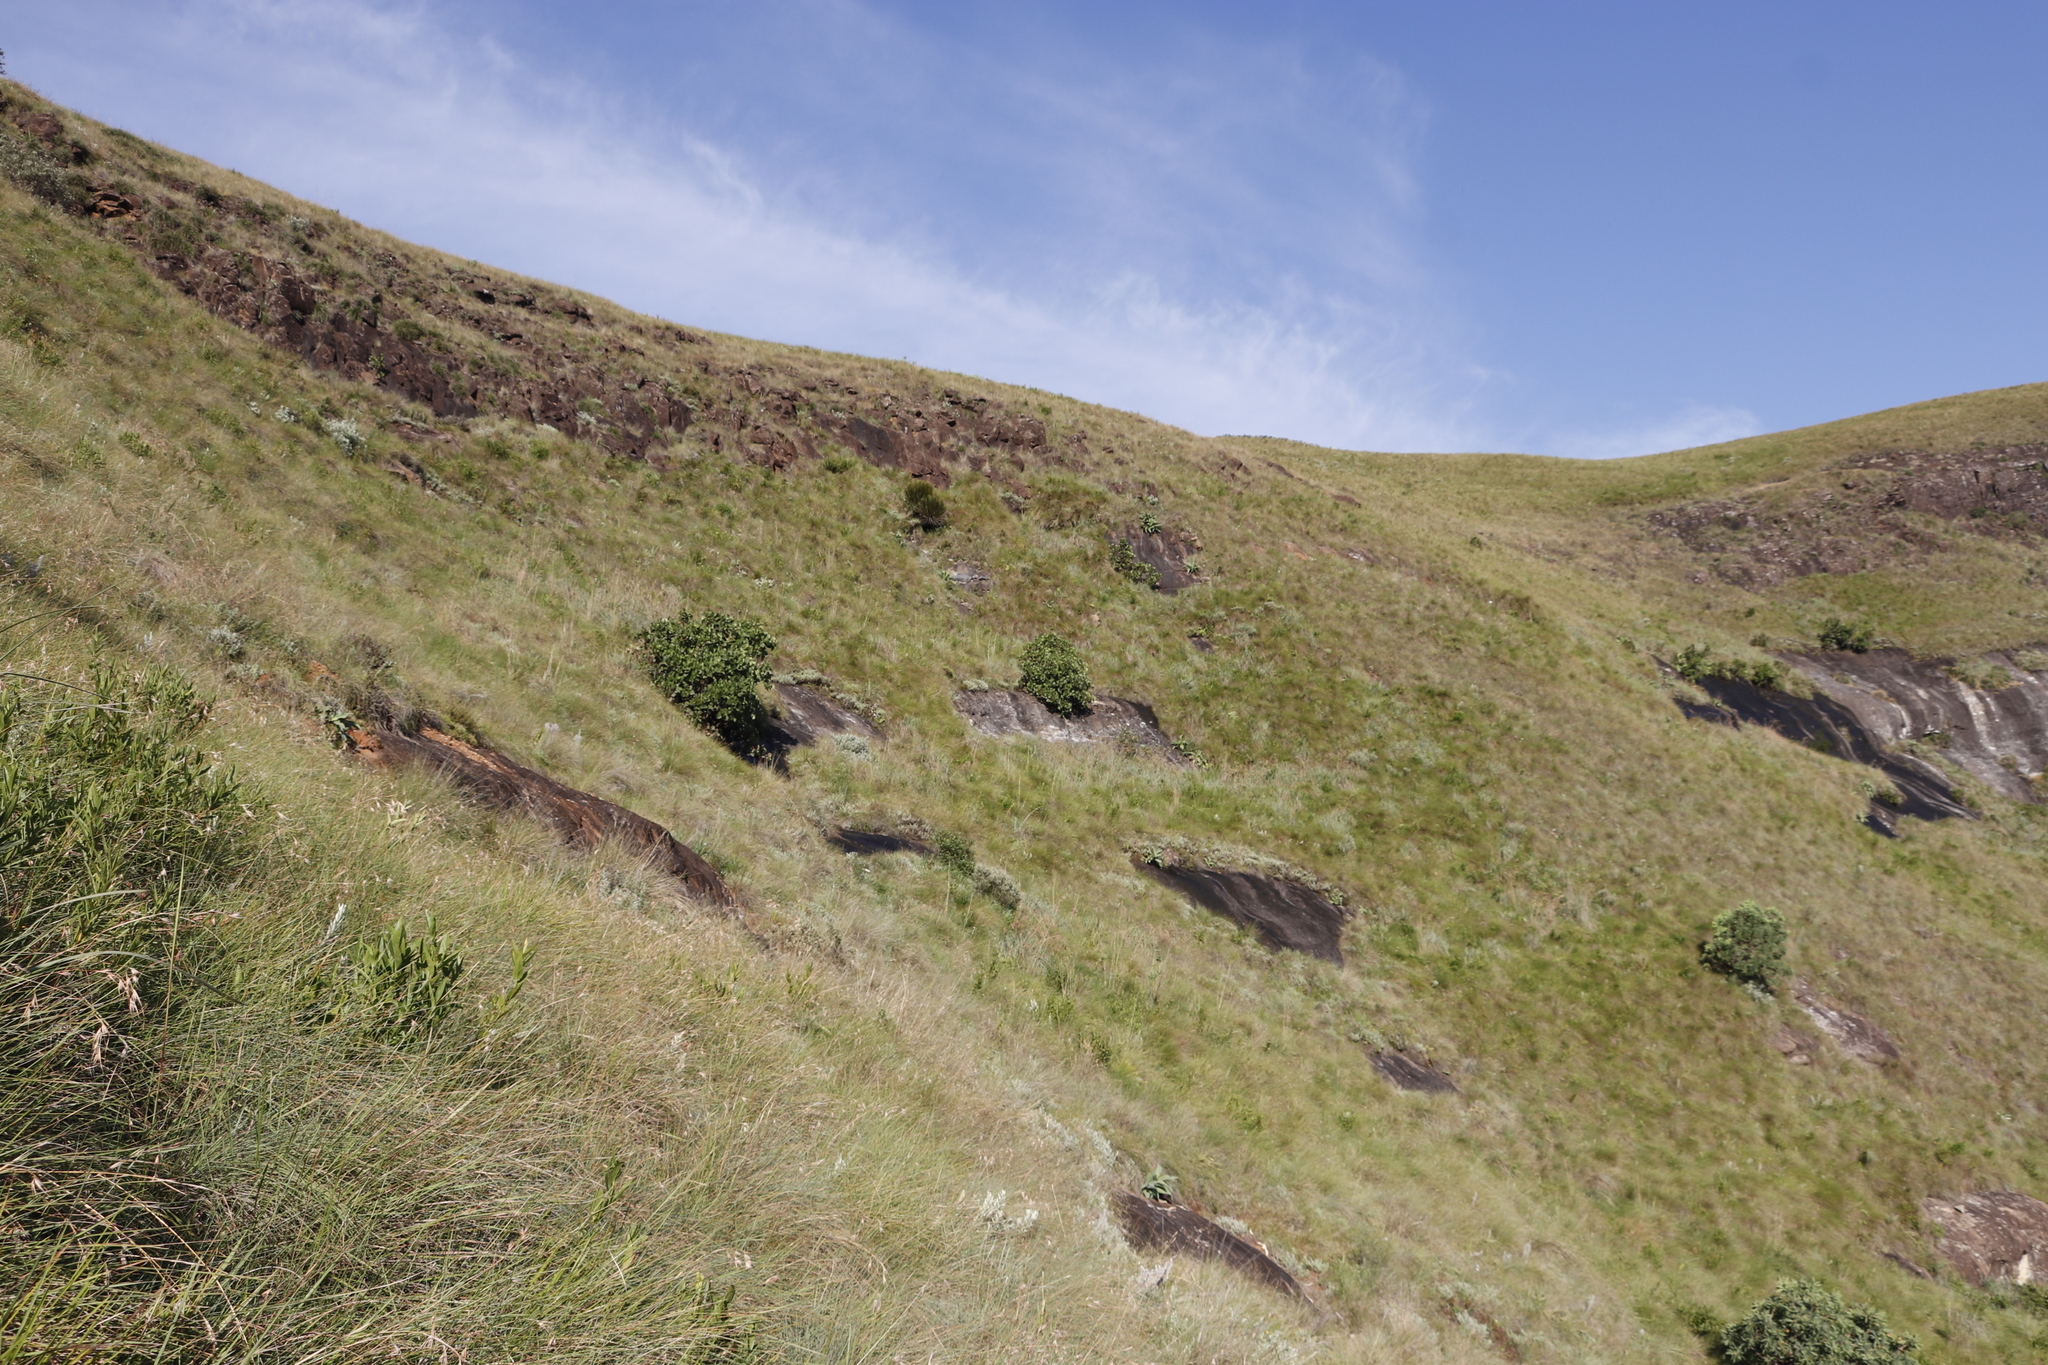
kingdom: Plantae
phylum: Tracheophyta
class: Magnoliopsida
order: Proteales
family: Proteaceae
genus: Protea
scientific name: Protea caffra
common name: Common sugarbush
